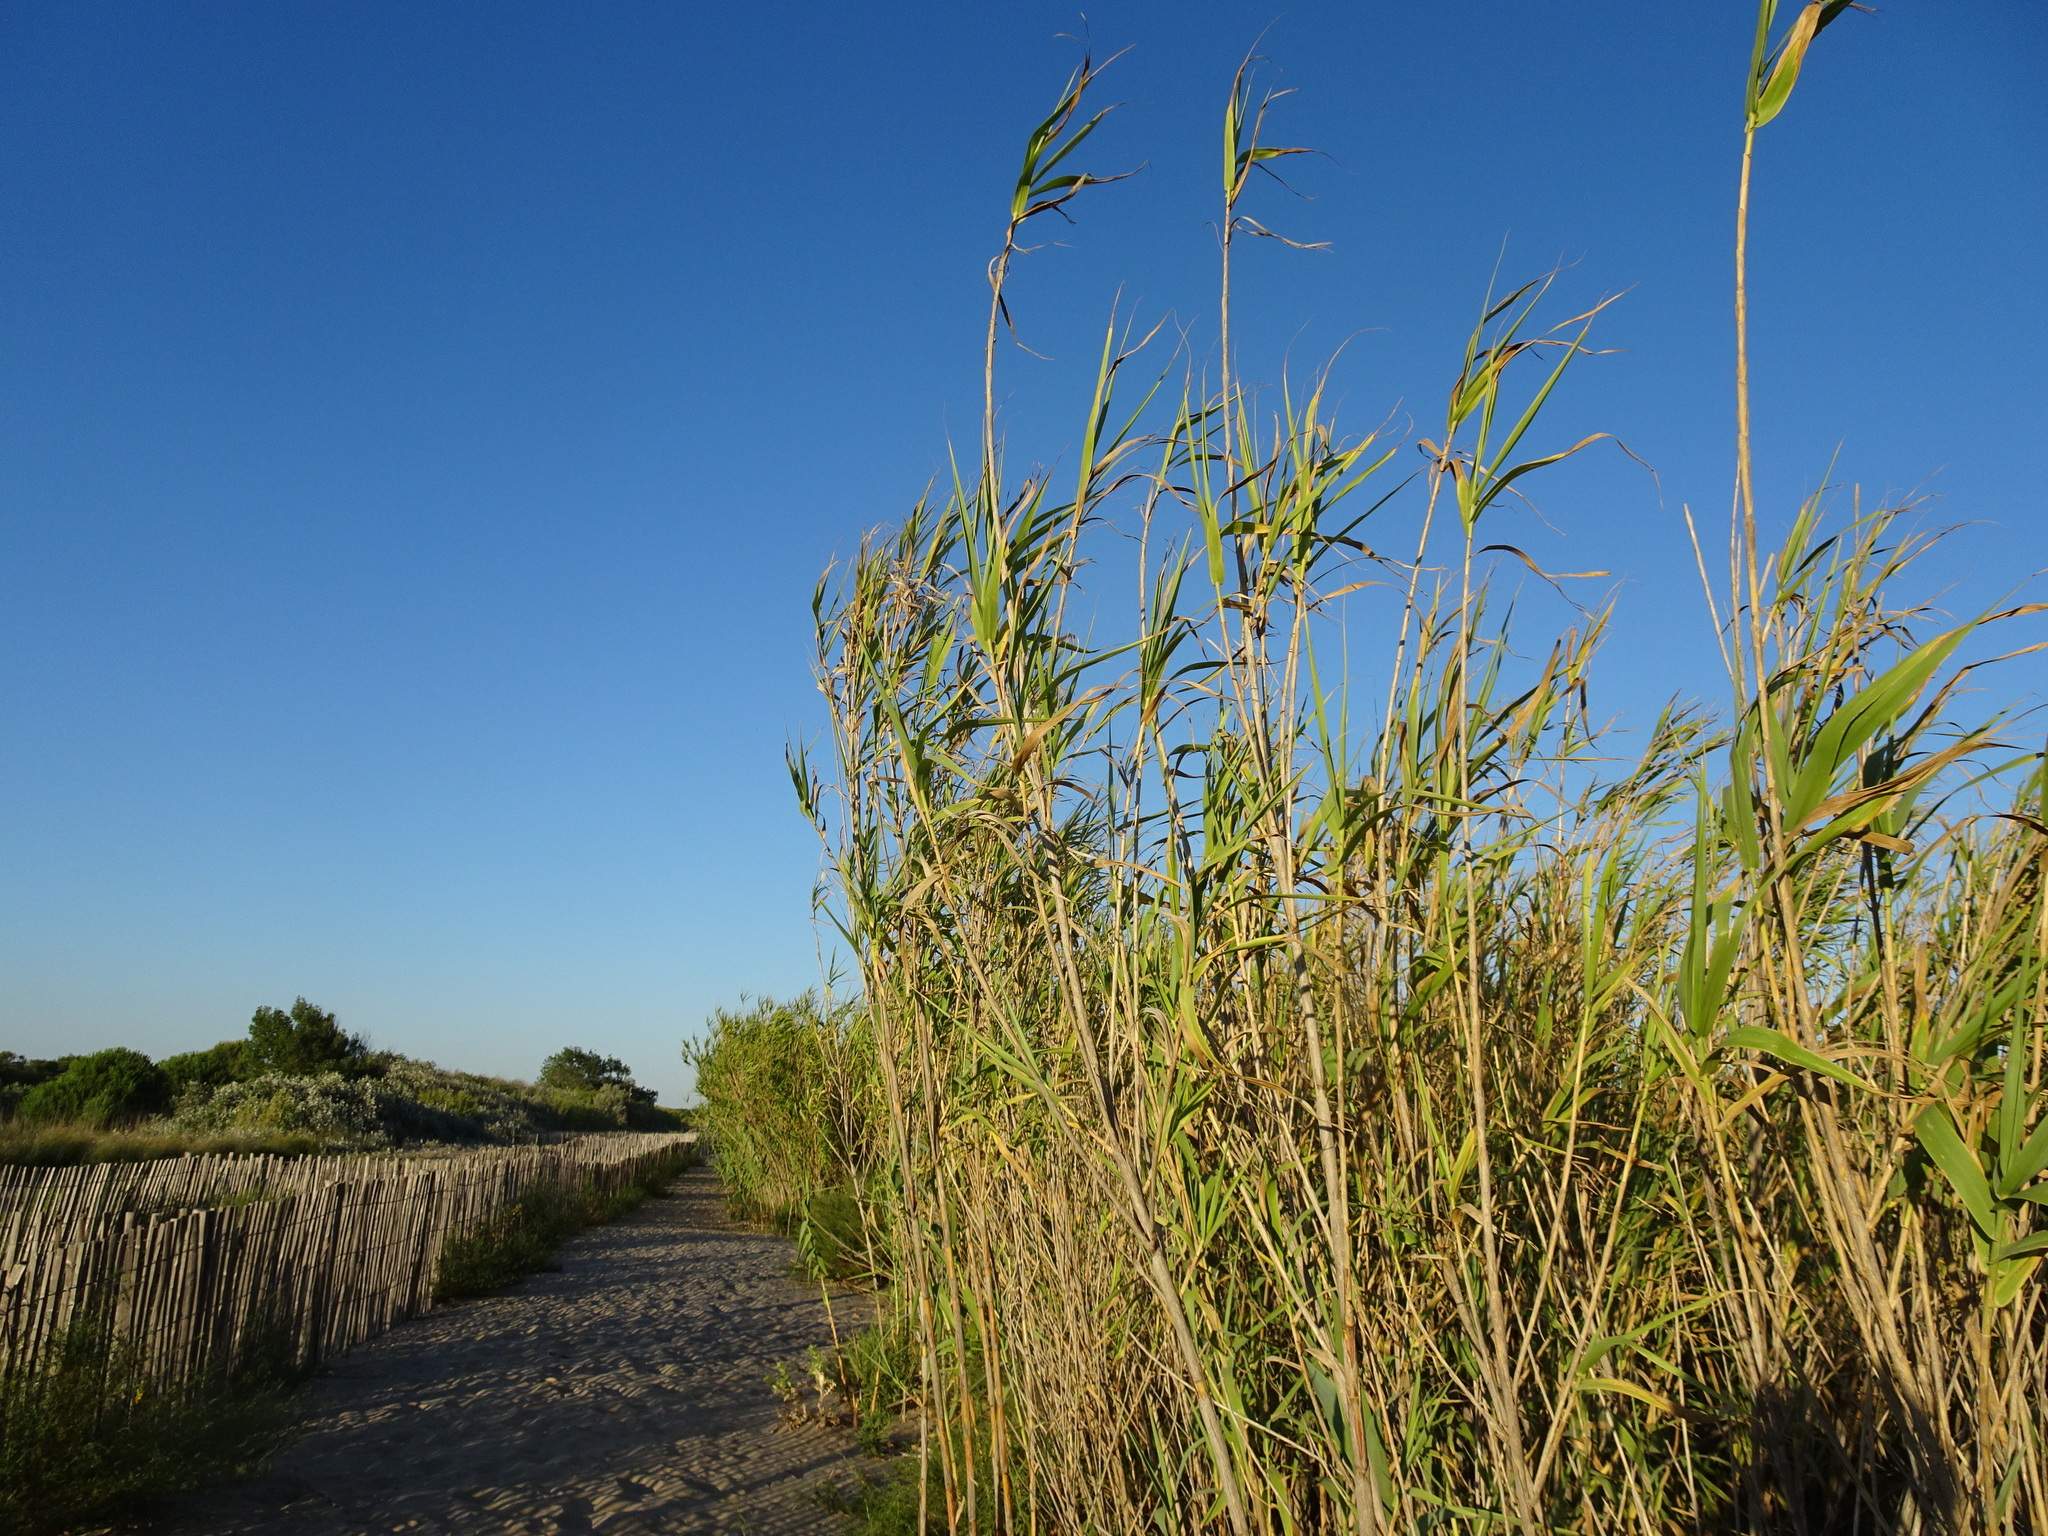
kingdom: Plantae
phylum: Tracheophyta
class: Liliopsida
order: Poales
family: Poaceae
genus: Arundo
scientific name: Arundo donax
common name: Giant reed
